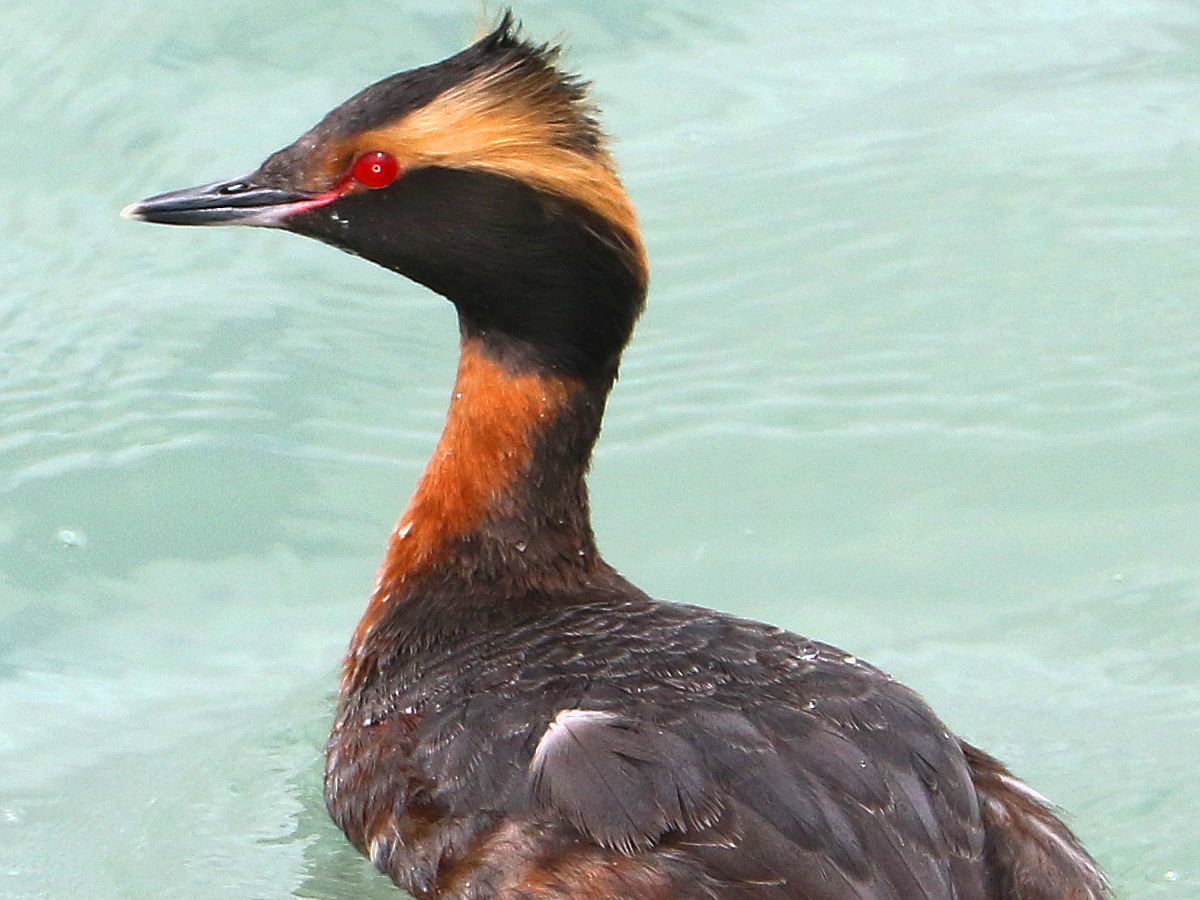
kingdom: Animalia
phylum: Chordata
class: Aves
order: Podicipediformes
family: Podicipedidae
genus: Podiceps
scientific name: Podiceps auritus
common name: Horned grebe
